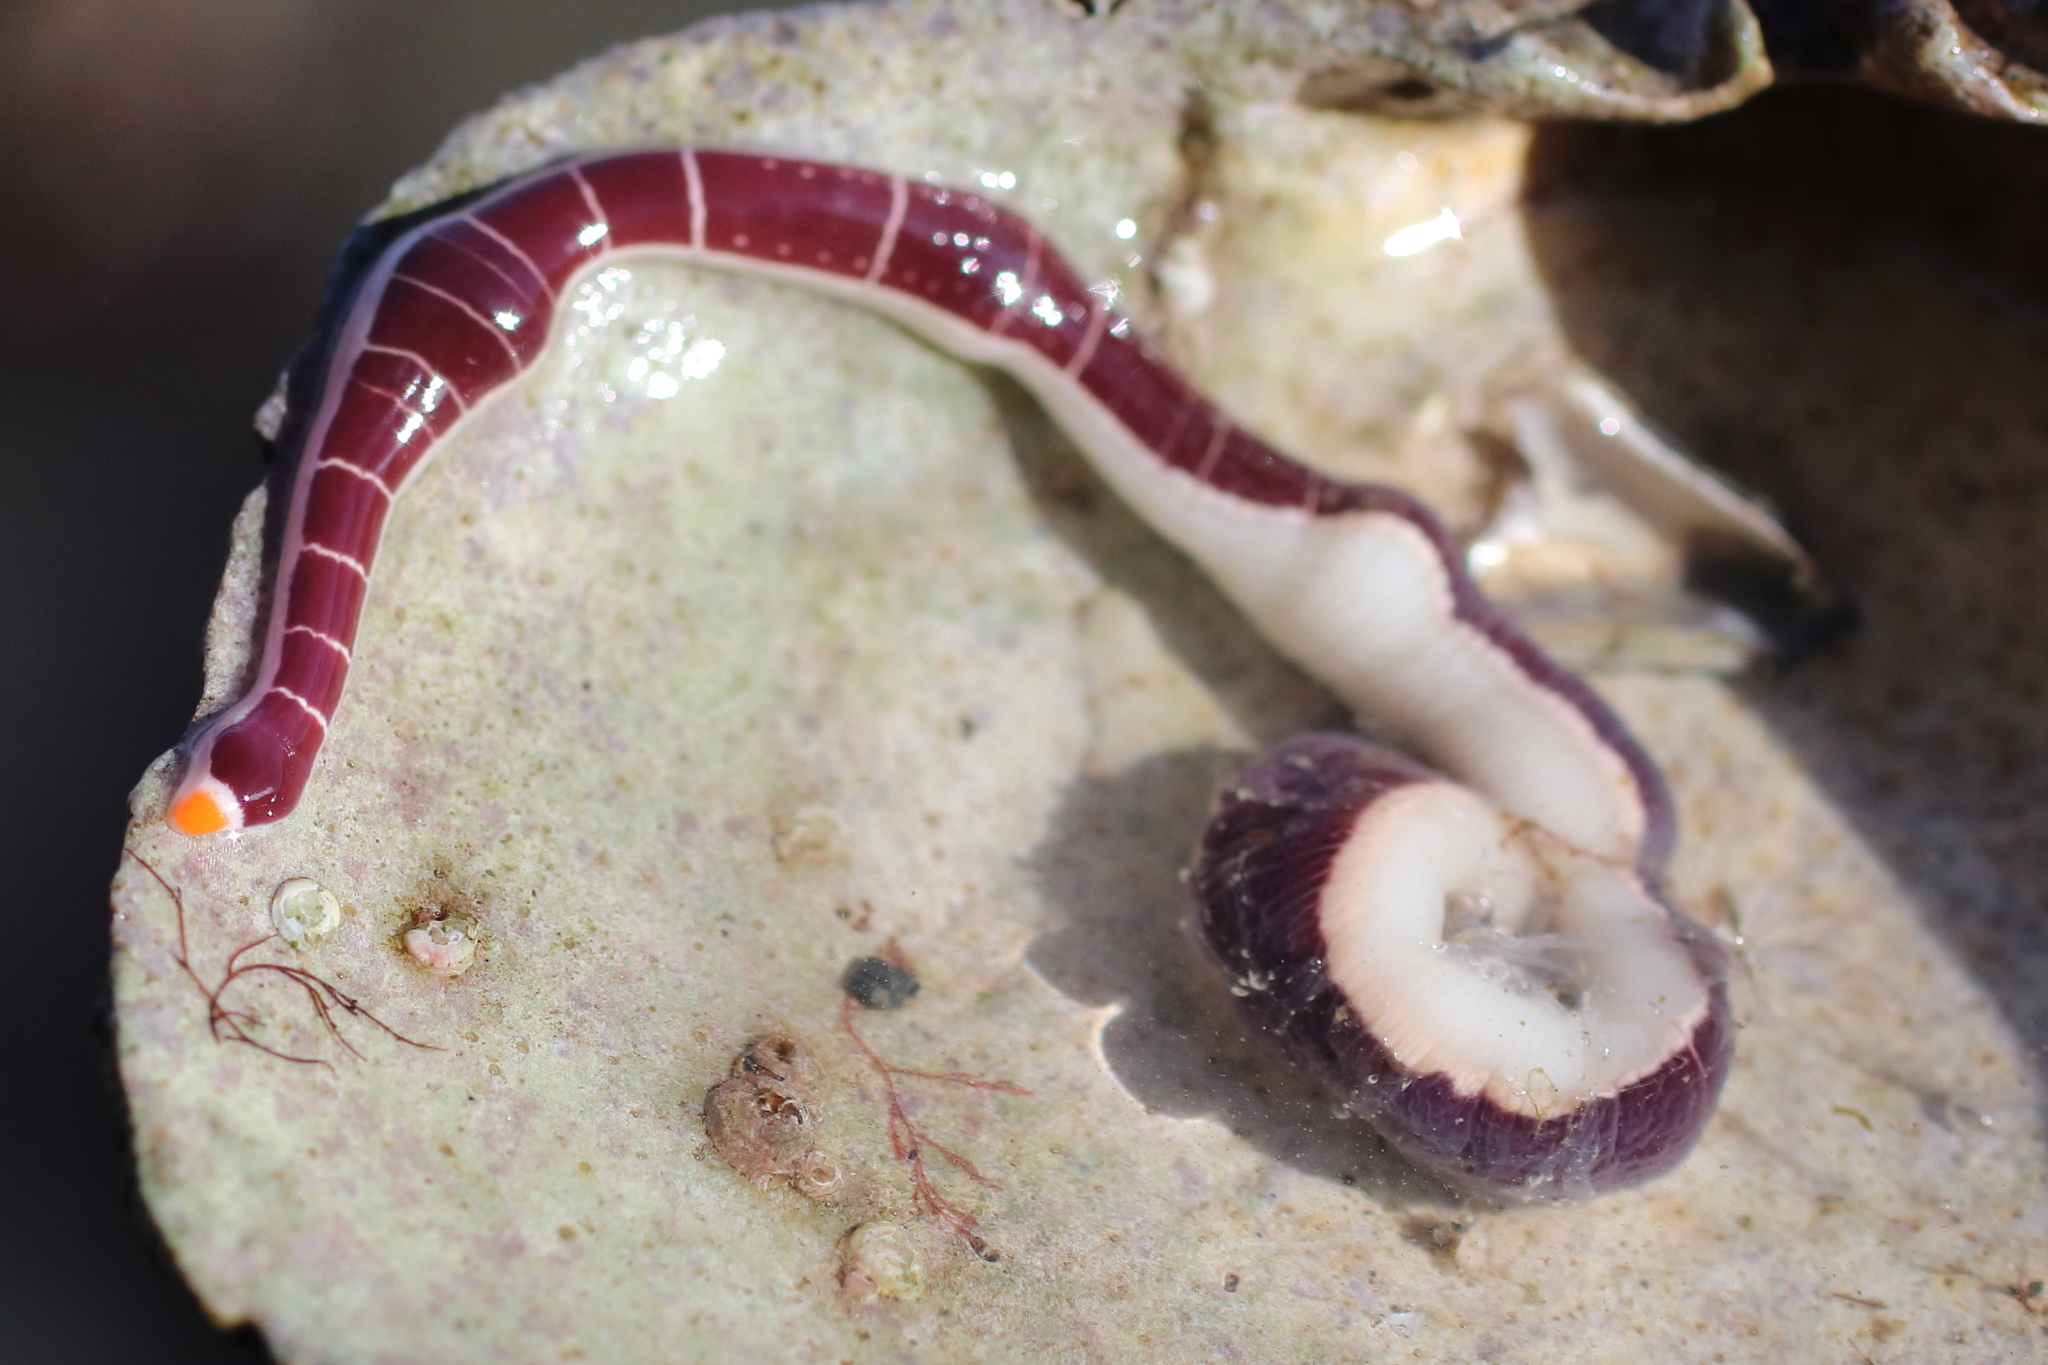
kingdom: Animalia
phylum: Nemertea
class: Pilidiophora
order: Heteronemertea
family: Lineidae
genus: Micrura
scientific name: Micrura verrilli
